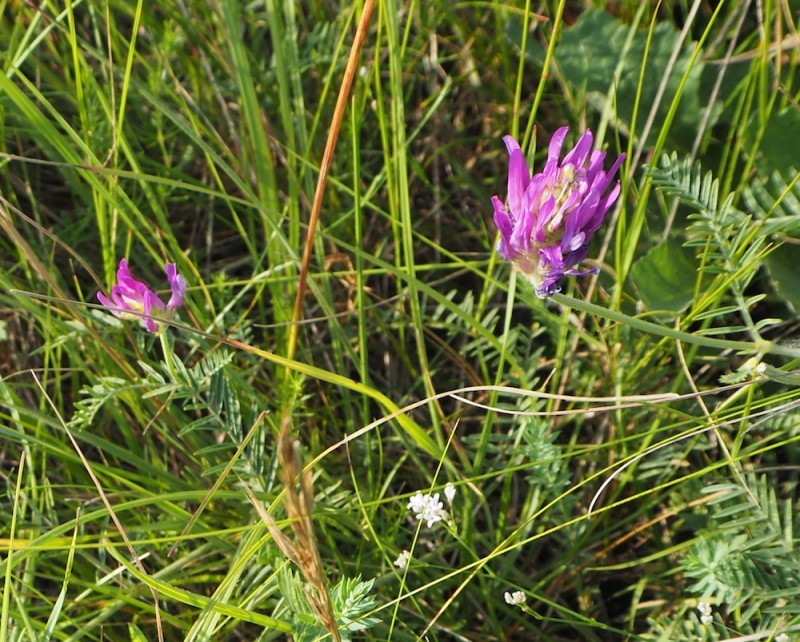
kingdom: Plantae
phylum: Tracheophyta
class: Magnoliopsida
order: Fabales
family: Fabaceae
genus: Astragalus
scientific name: Astragalus onobrychis
